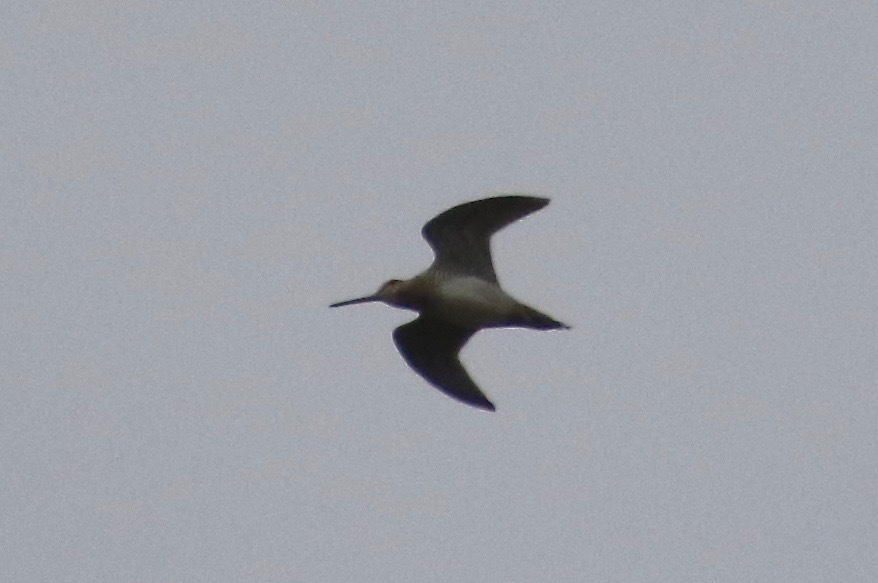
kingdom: Animalia
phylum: Chordata
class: Aves
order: Charadriiformes
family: Scolopacidae
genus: Gallinago
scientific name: Gallinago delicata
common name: Wilson's snipe
